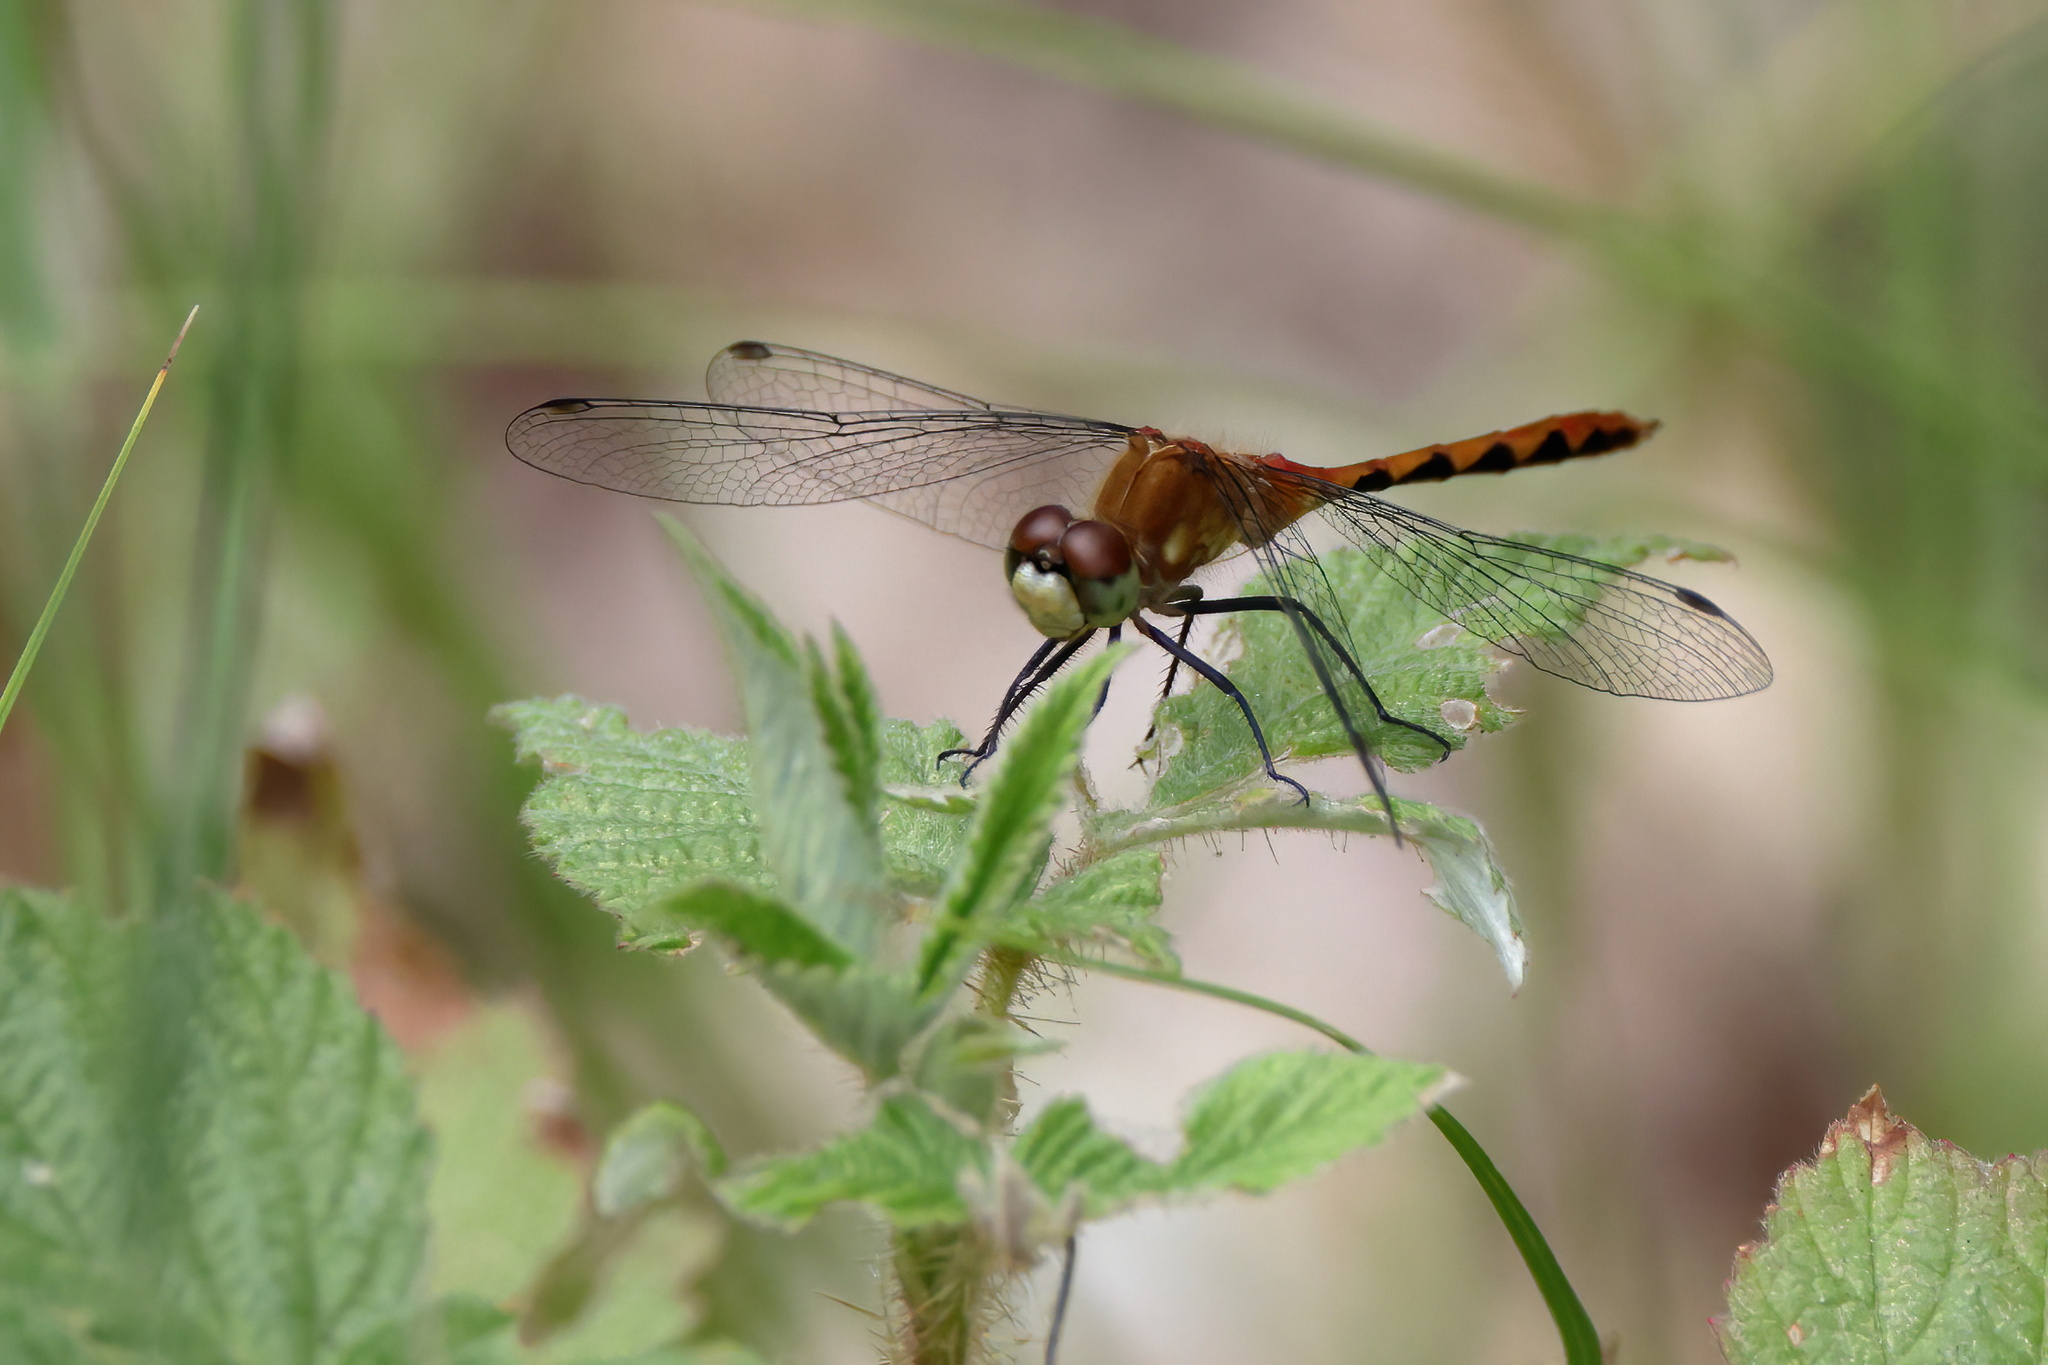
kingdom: Animalia
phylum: Arthropoda
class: Insecta
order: Odonata
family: Libellulidae
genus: Sympetrum
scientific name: Sympetrum obtrusum
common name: White-faced meadowhawk
